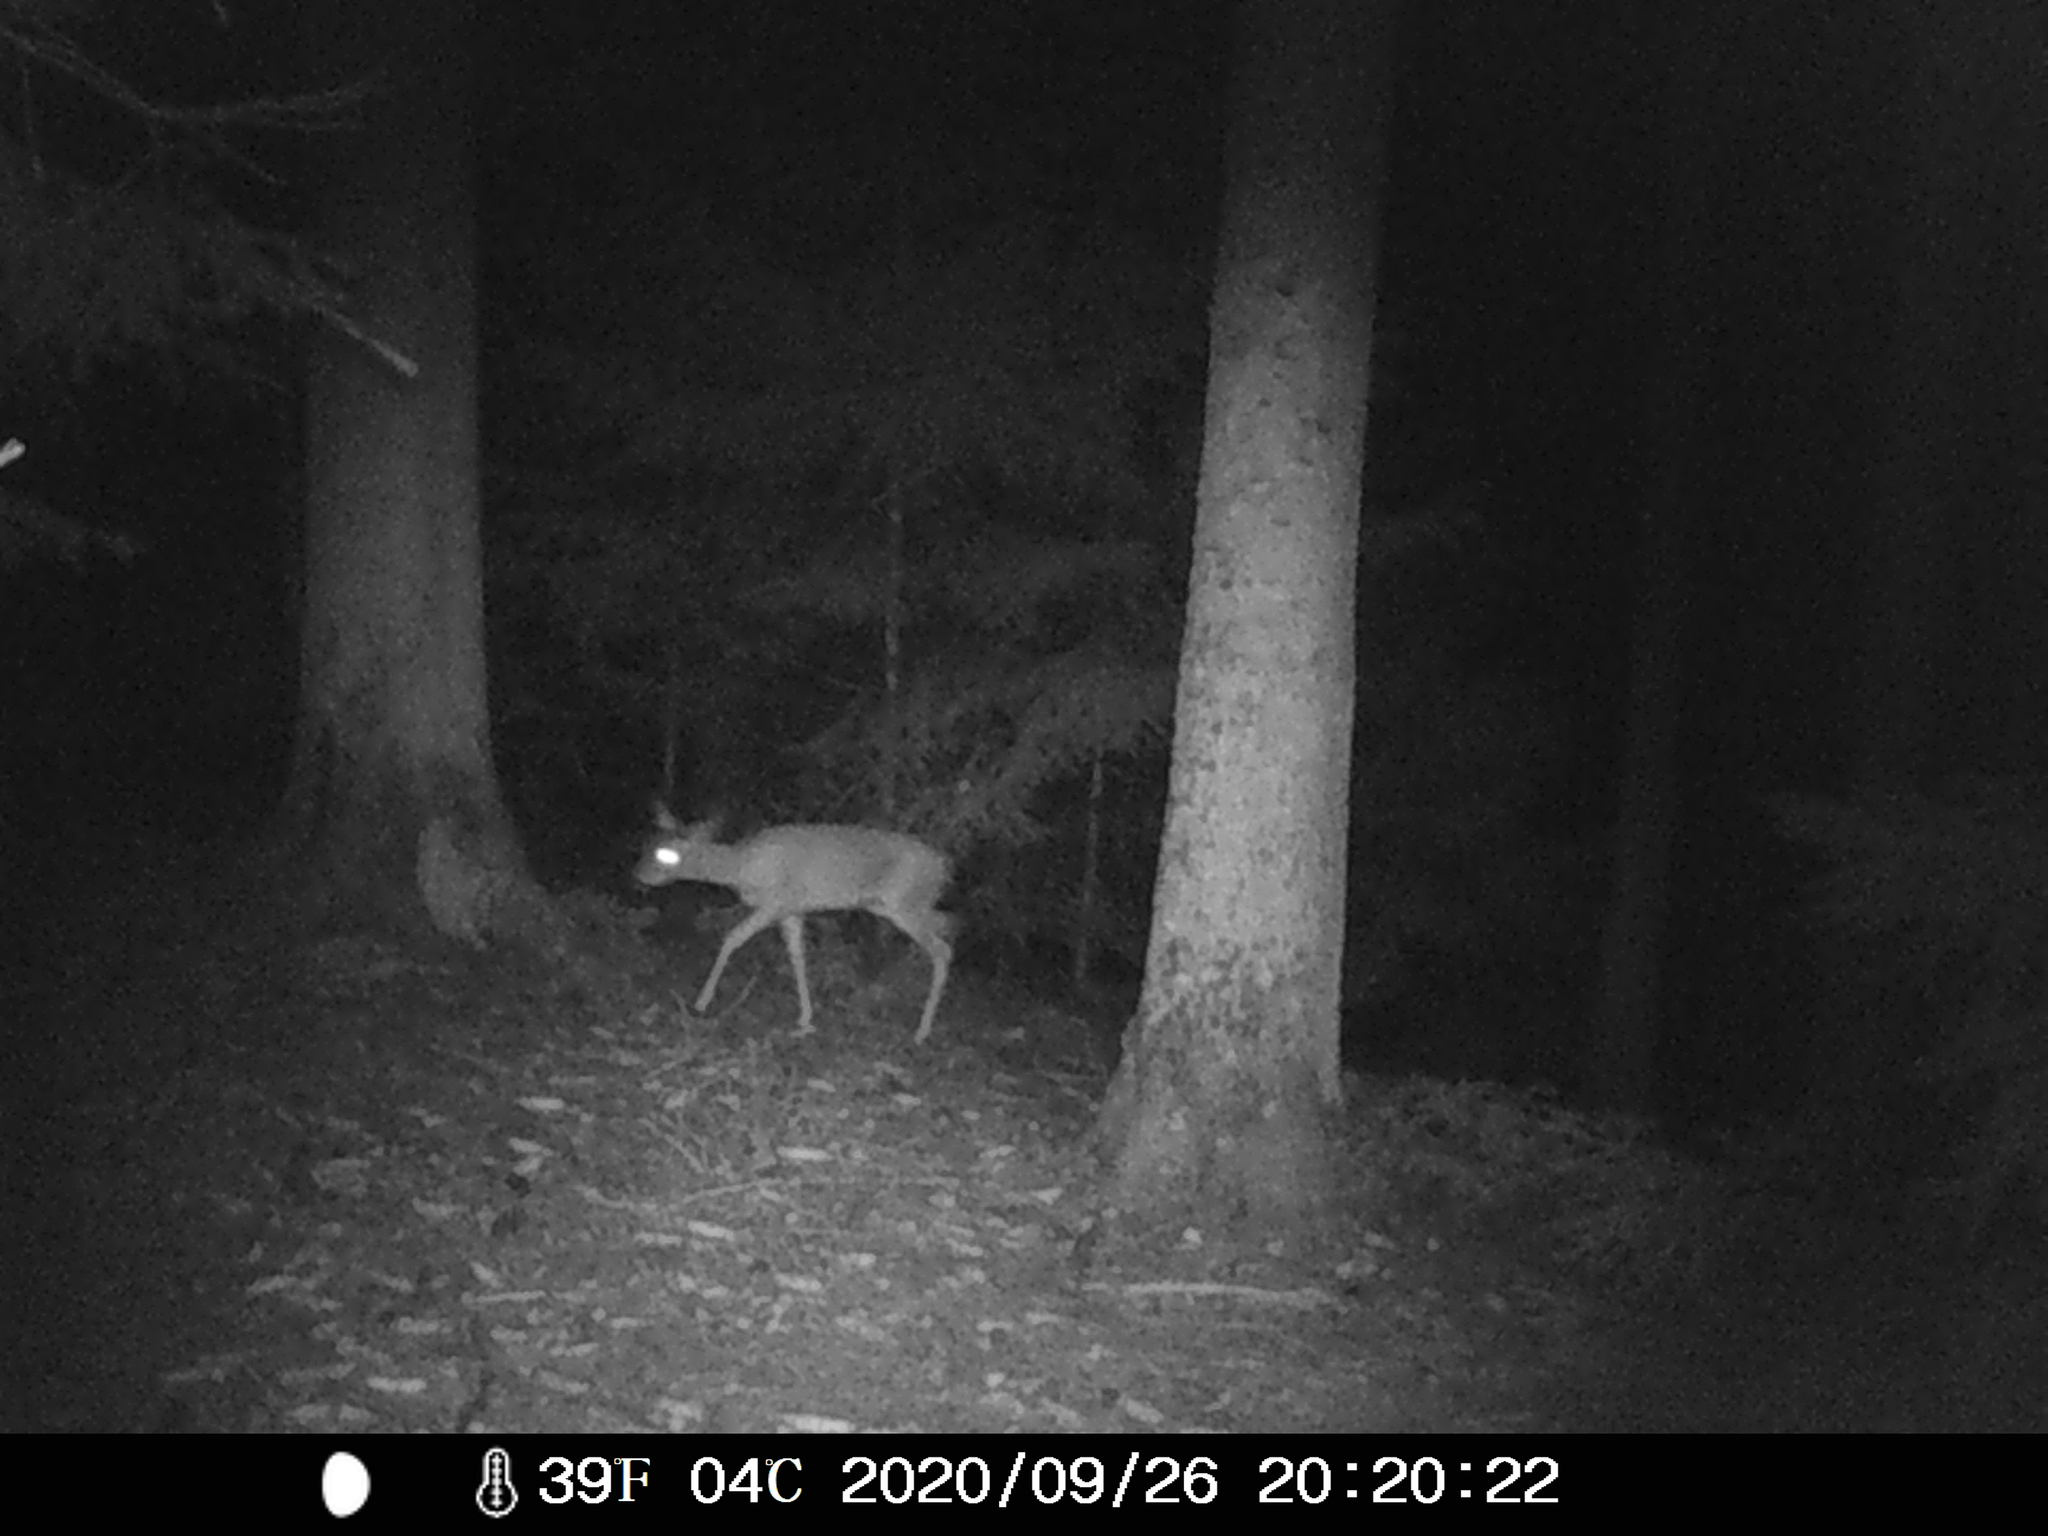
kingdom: Animalia
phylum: Chordata
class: Mammalia
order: Artiodactyla
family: Cervidae
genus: Capreolus
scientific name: Capreolus capreolus
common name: Western roe deer
